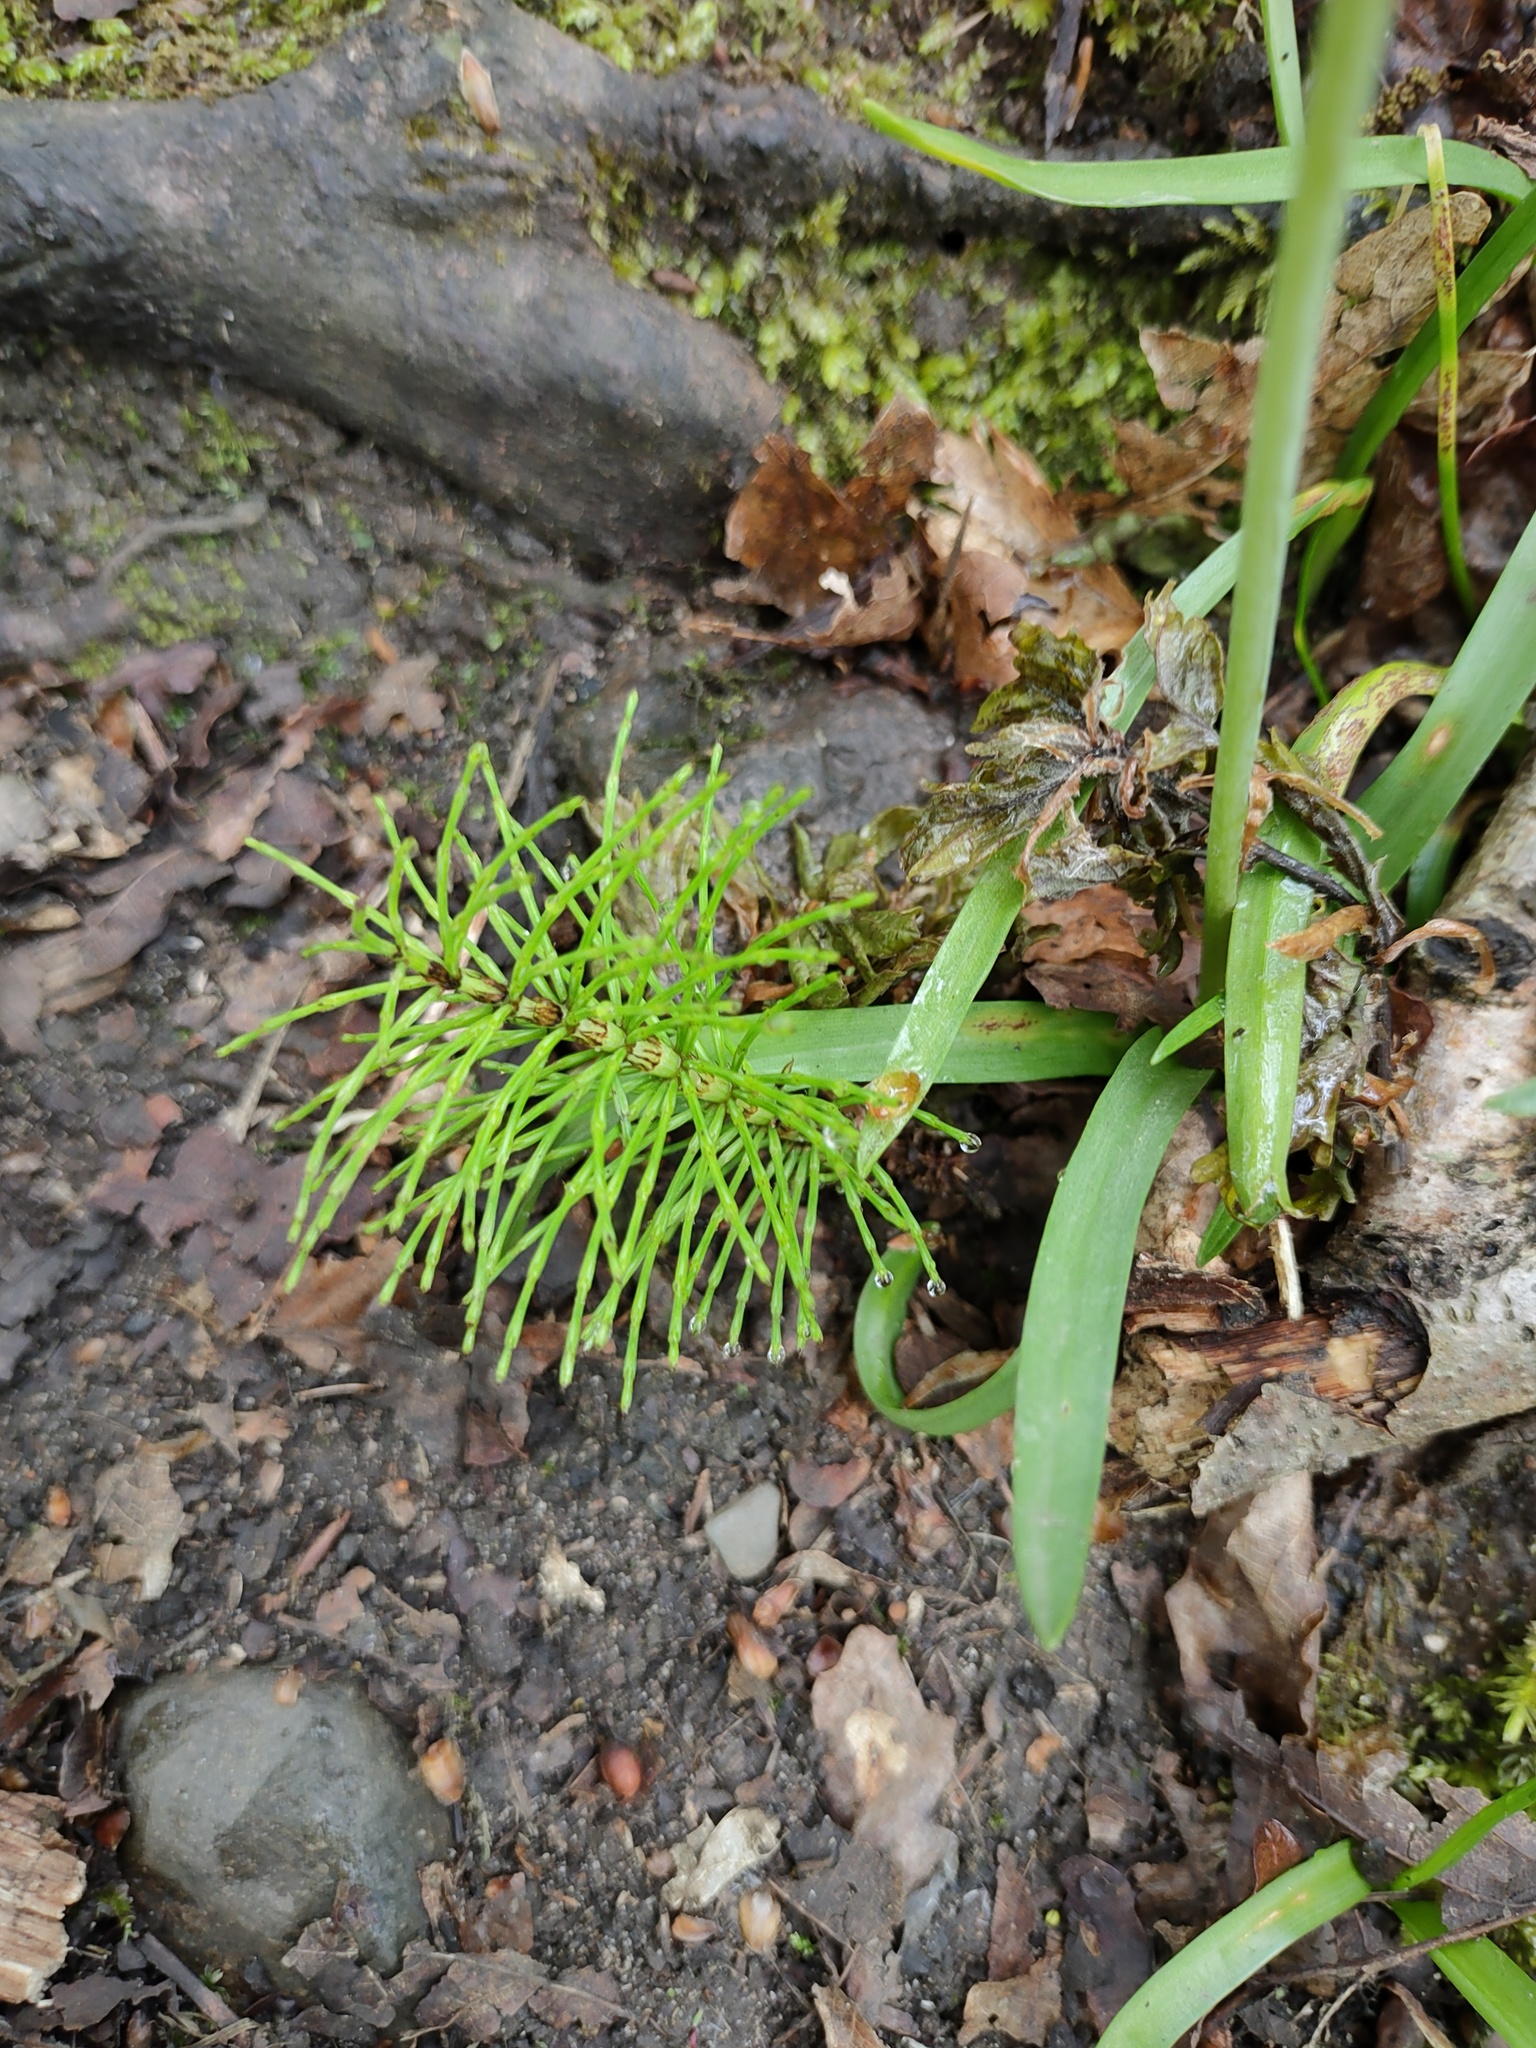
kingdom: Plantae
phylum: Tracheophyta
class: Polypodiopsida
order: Equisetales
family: Equisetaceae
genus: Equisetum
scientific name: Equisetum telmateia
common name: Great horsetail
